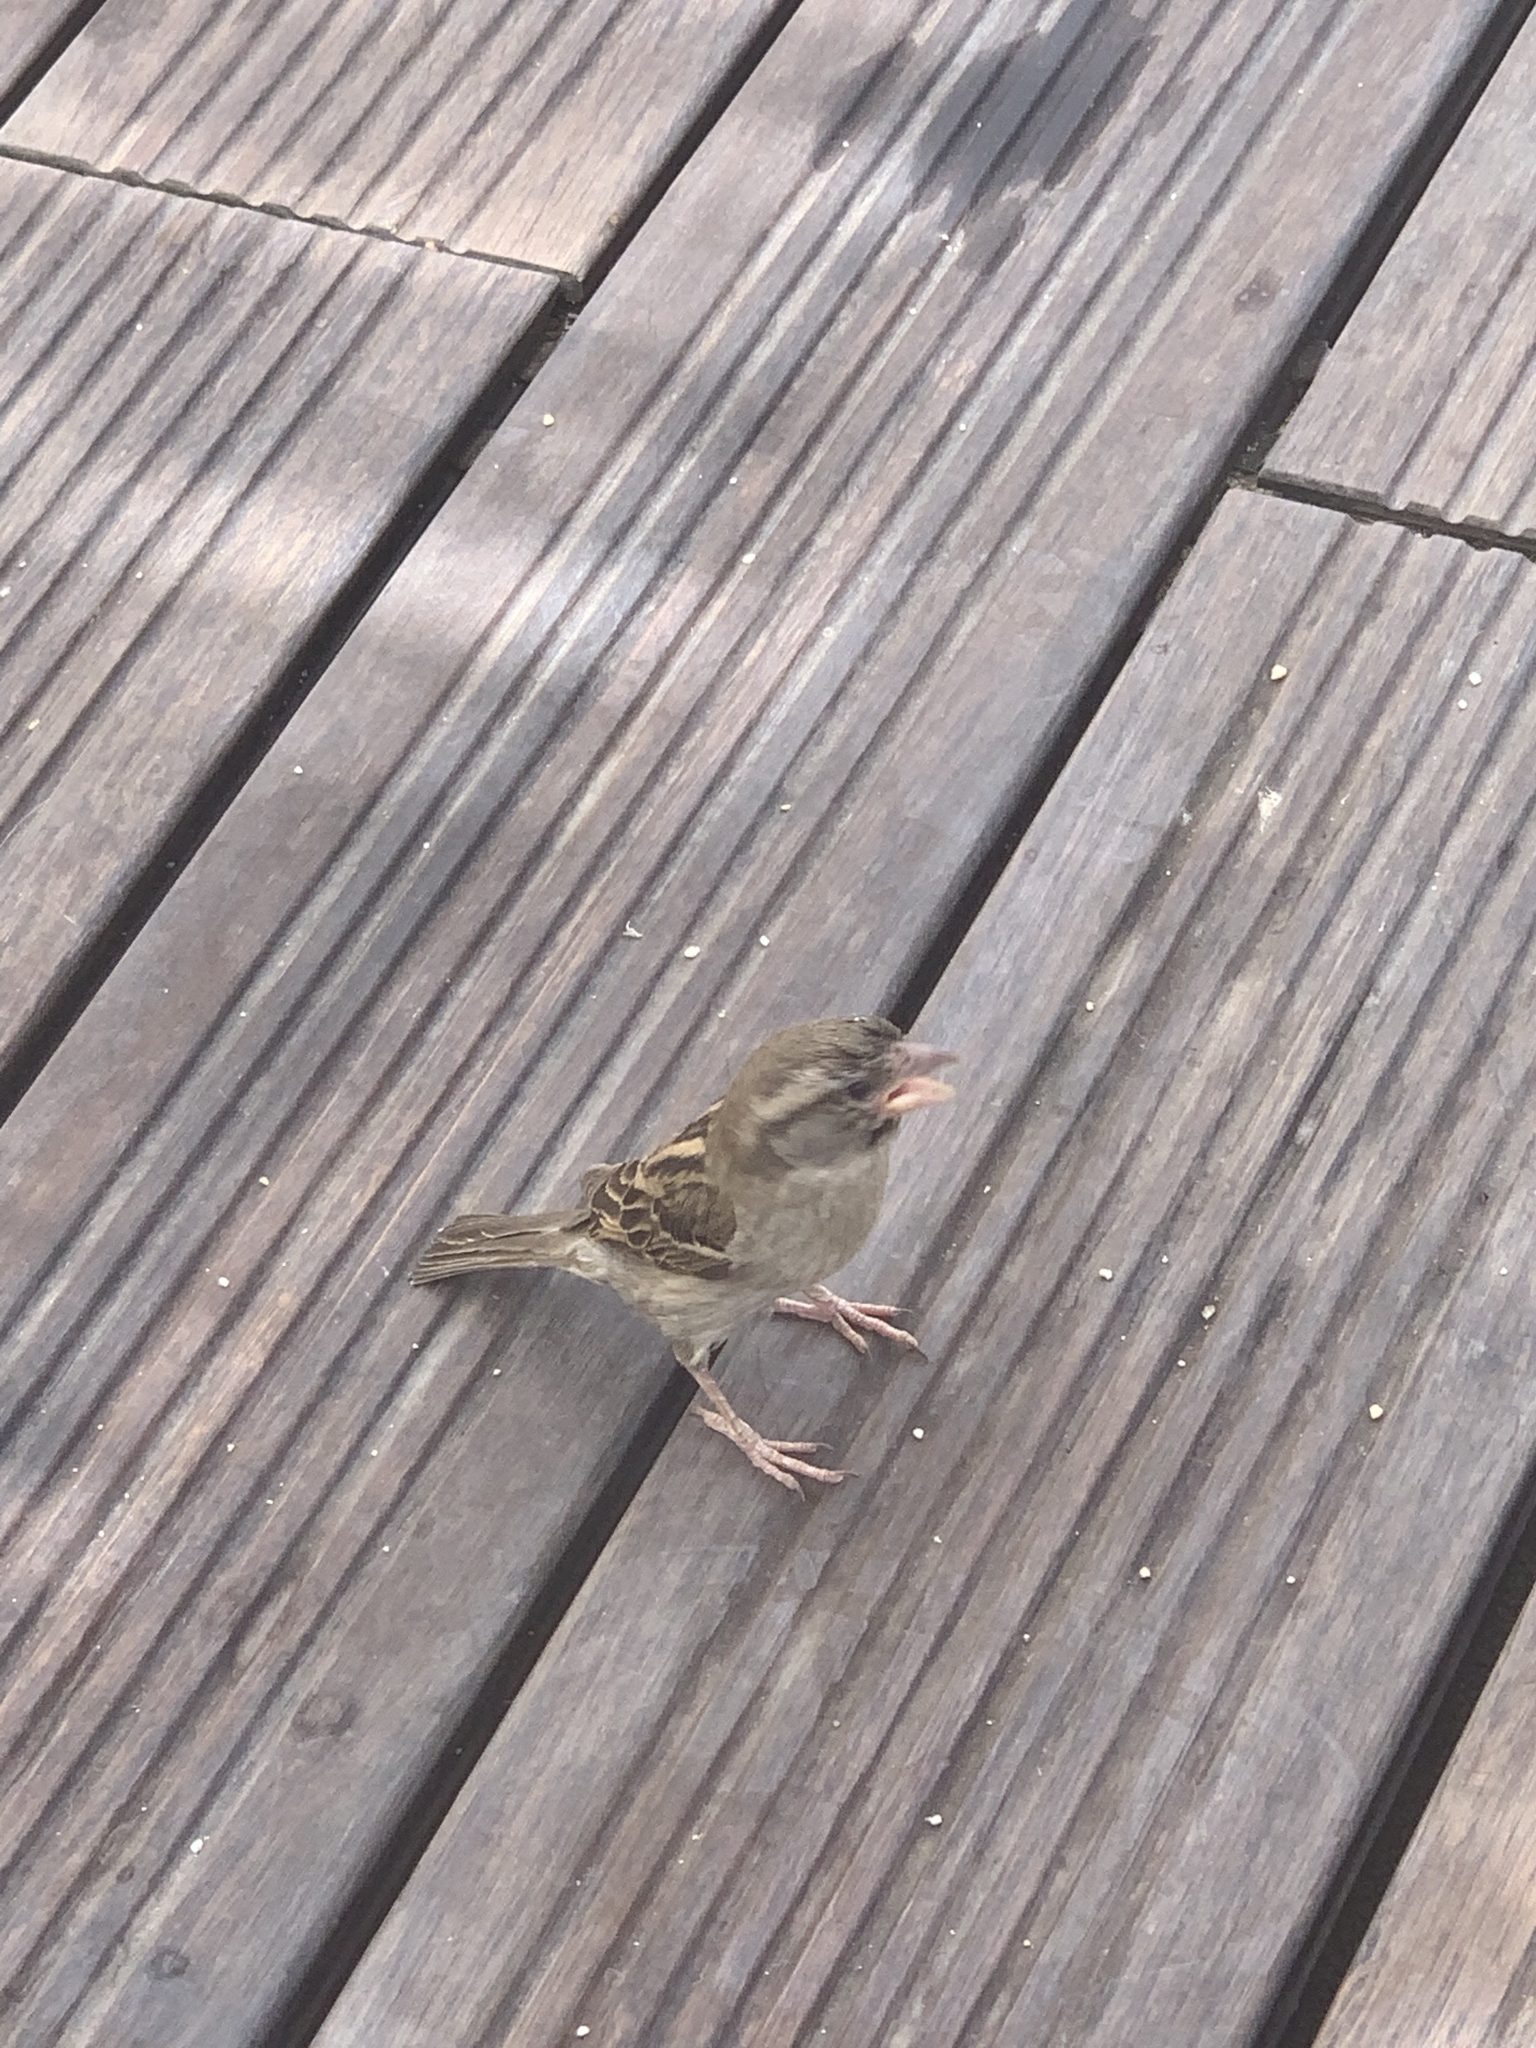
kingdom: Animalia
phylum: Chordata
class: Aves
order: Passeriformes
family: Passeridae
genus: Passer
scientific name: Passer domesticus
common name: House sparrow
